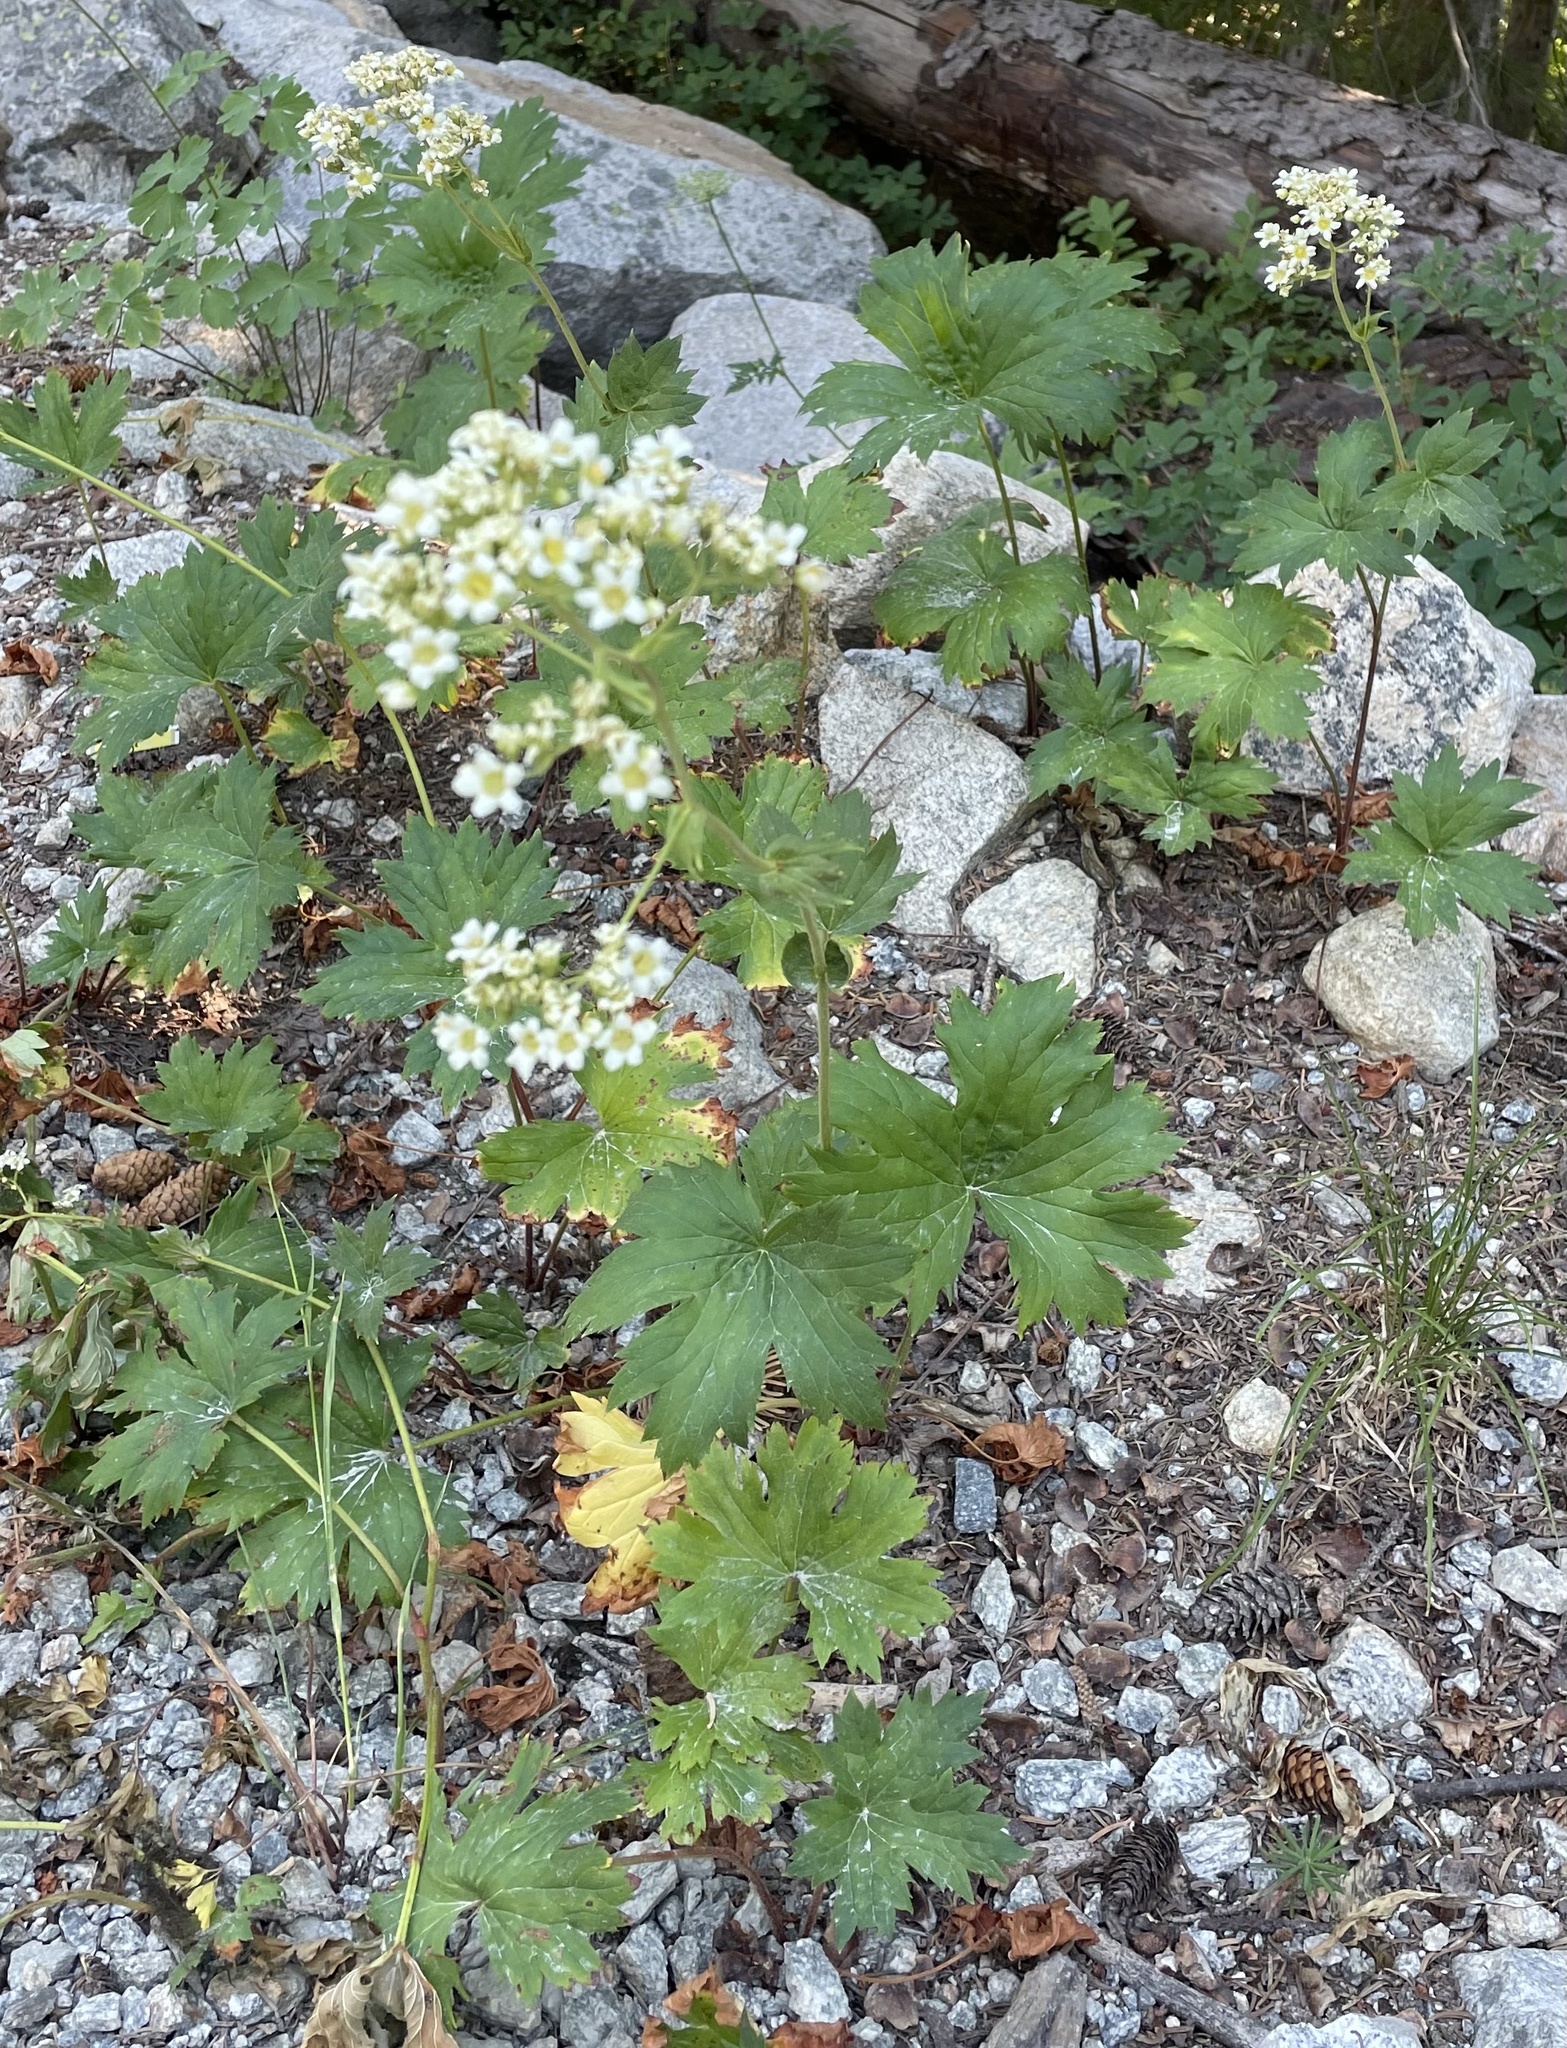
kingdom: Plantae
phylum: Tracheophyta
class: Magnoliopsida
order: Saxifragales
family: Saxifragaceae
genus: Boykinia
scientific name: Boykinia major
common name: Large boykinia
